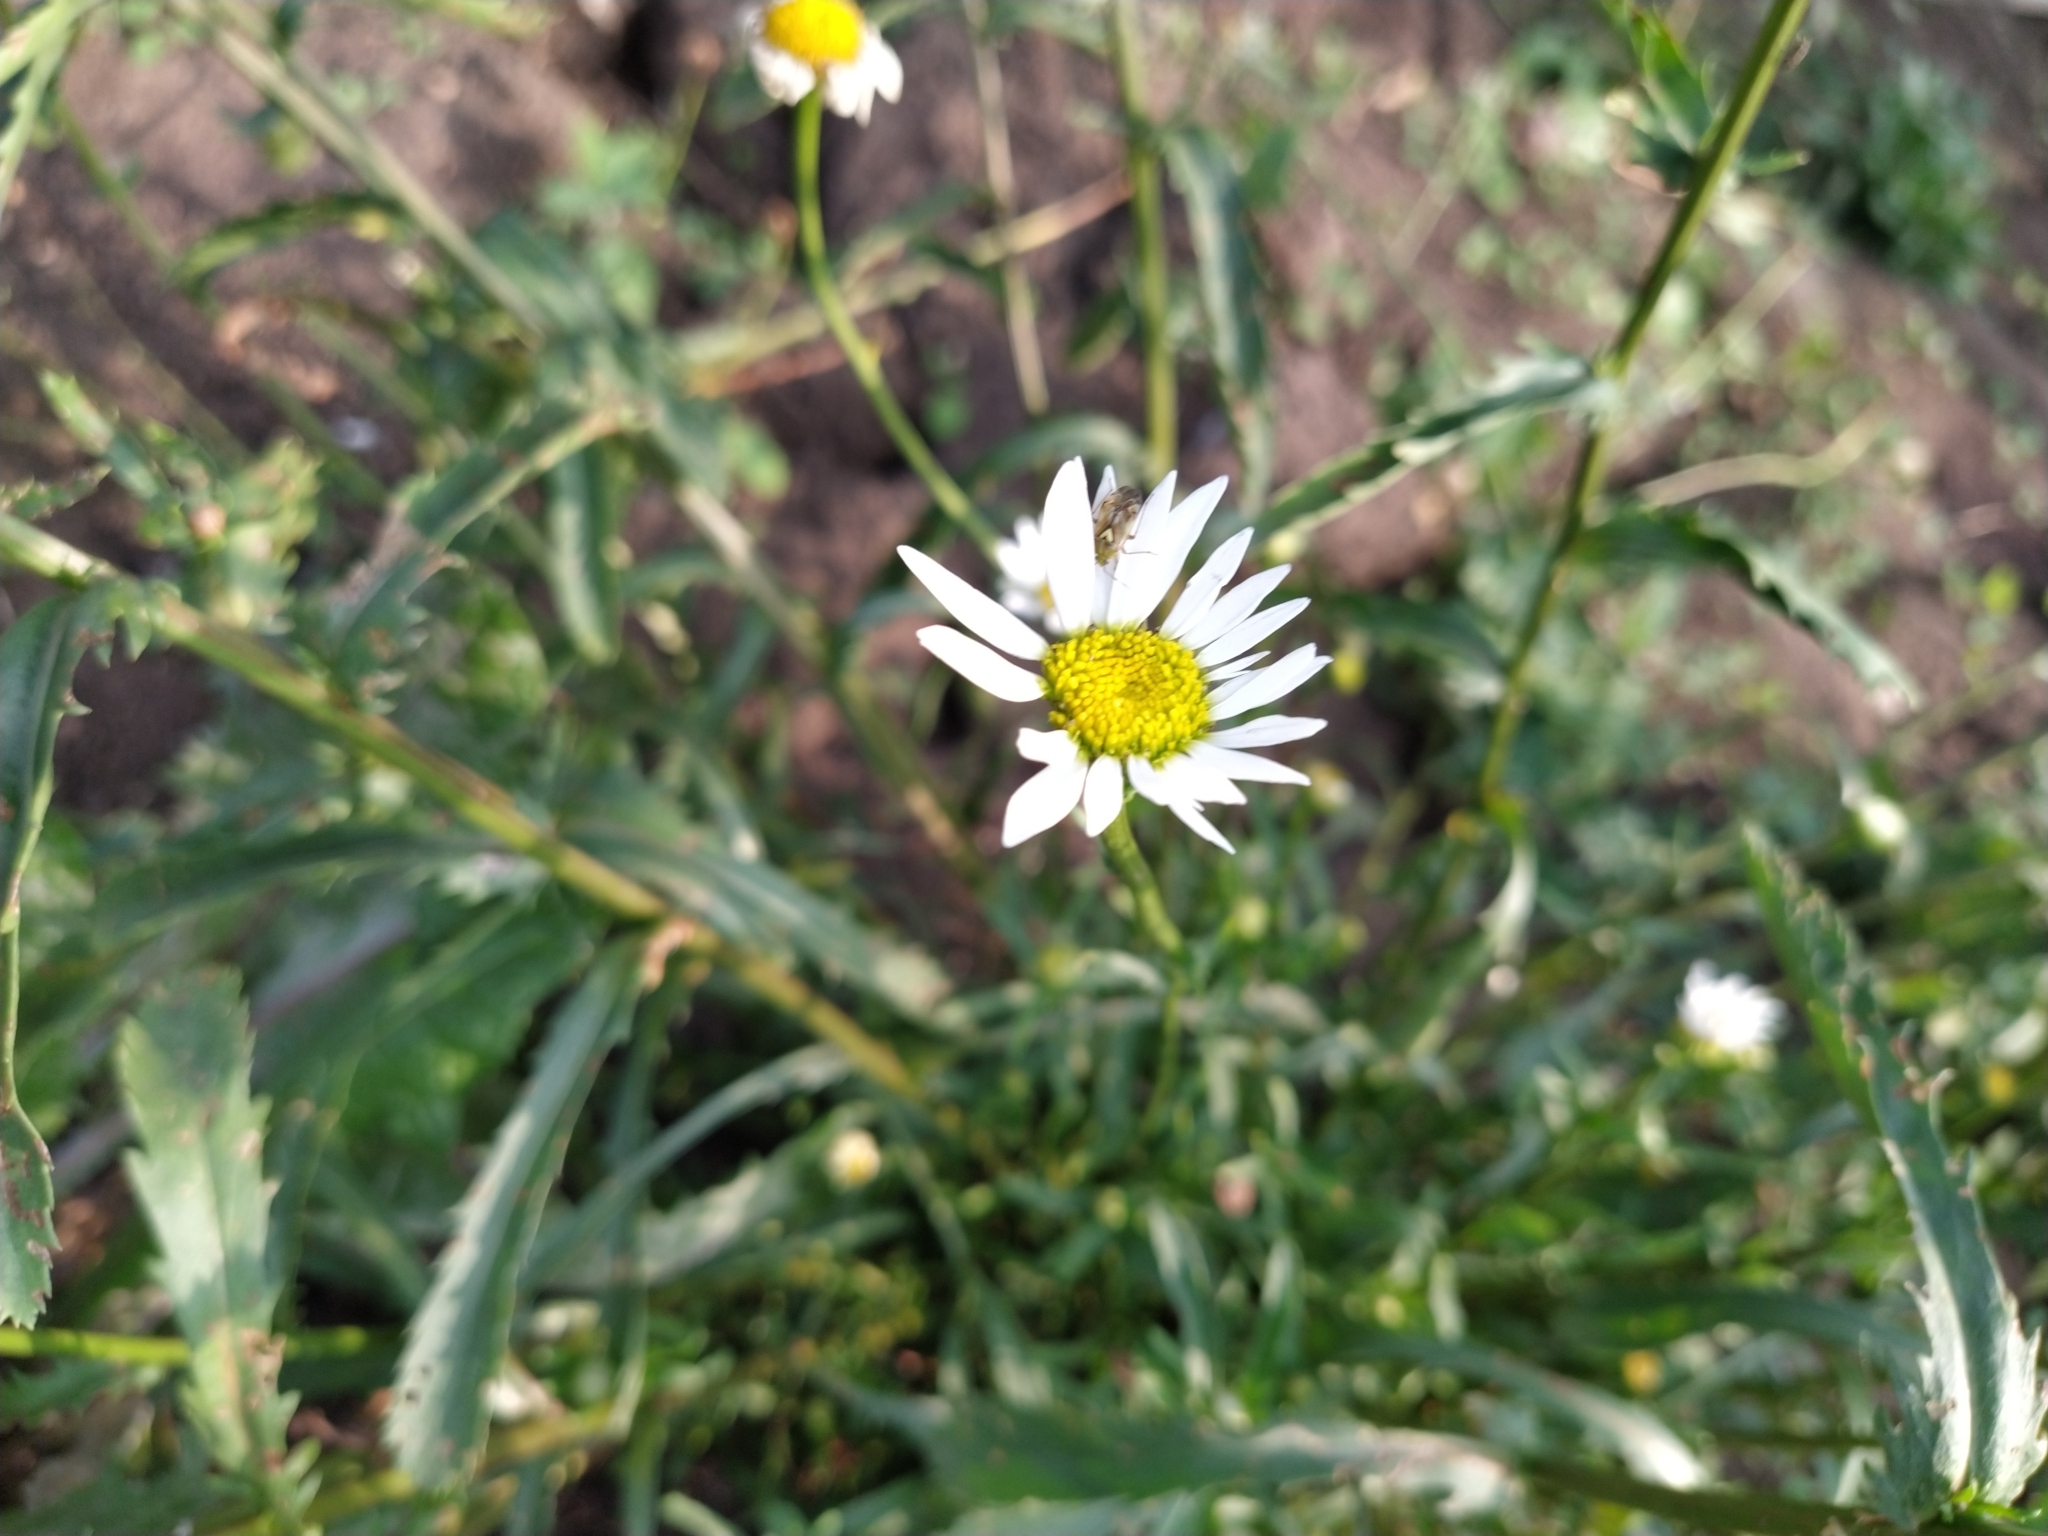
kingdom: Plantae
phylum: Tracheophyta
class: Magnoliopsida
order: Asterales
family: Asteraceae
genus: Leucanthemum
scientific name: Leucanthemum vulgare
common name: Oxeye daisy
